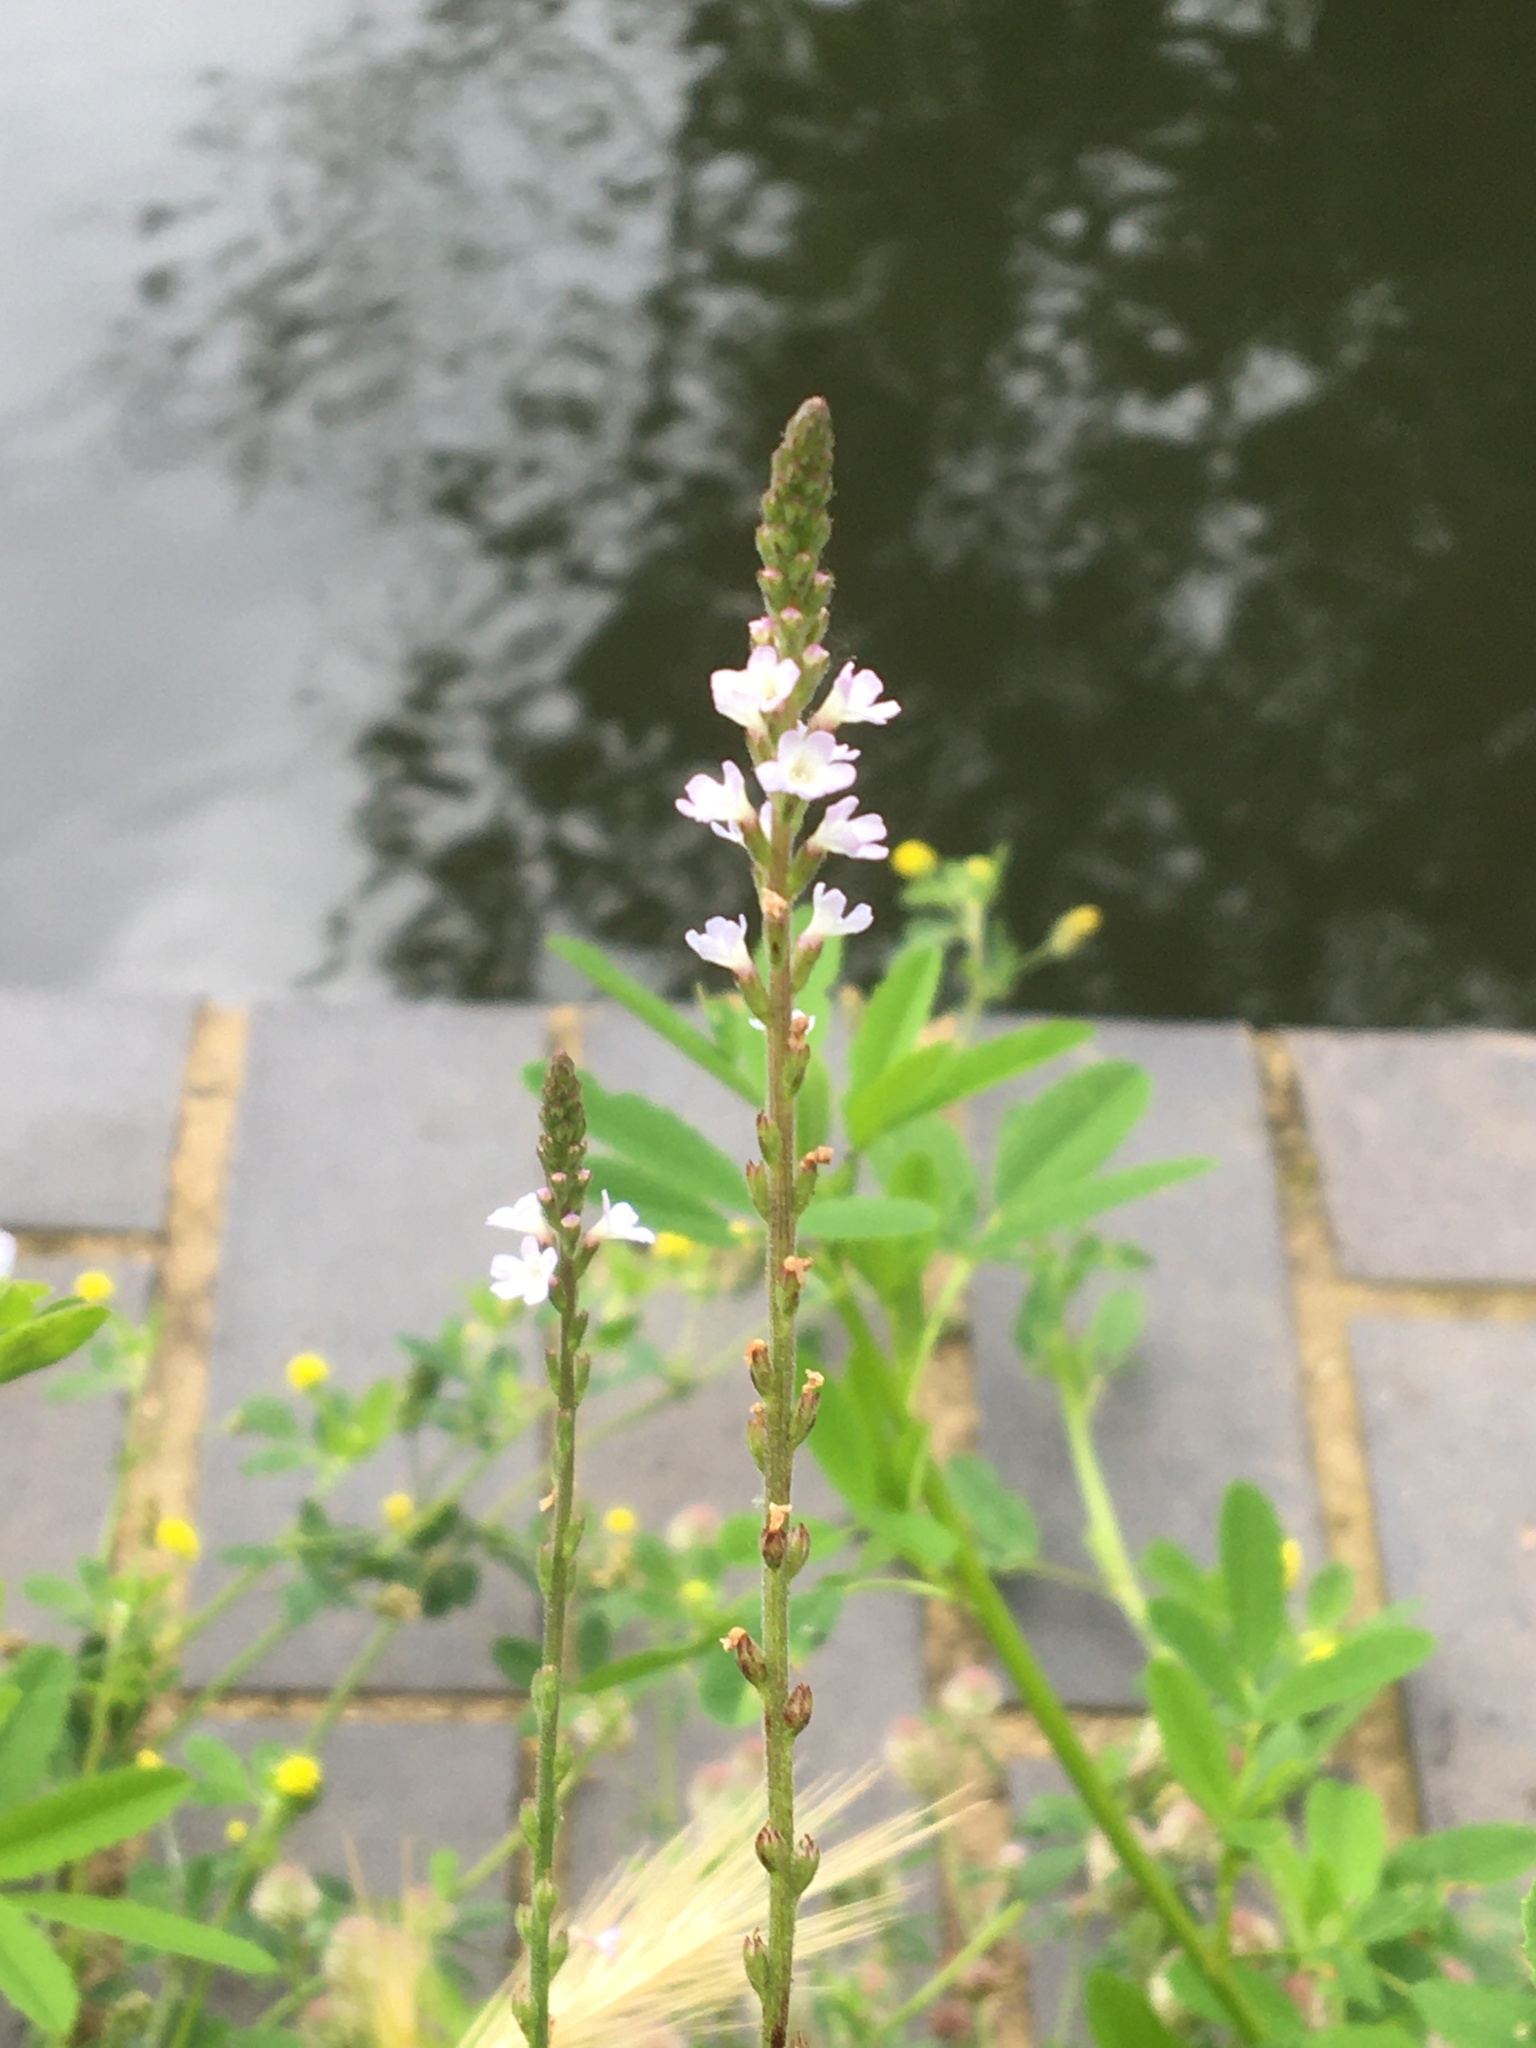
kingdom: Plantae
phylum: Tracheophyta
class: Magnoliopsida
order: Lamiales
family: Verbenaceae
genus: Verbena
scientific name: Verbena officinalis
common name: Vervain
